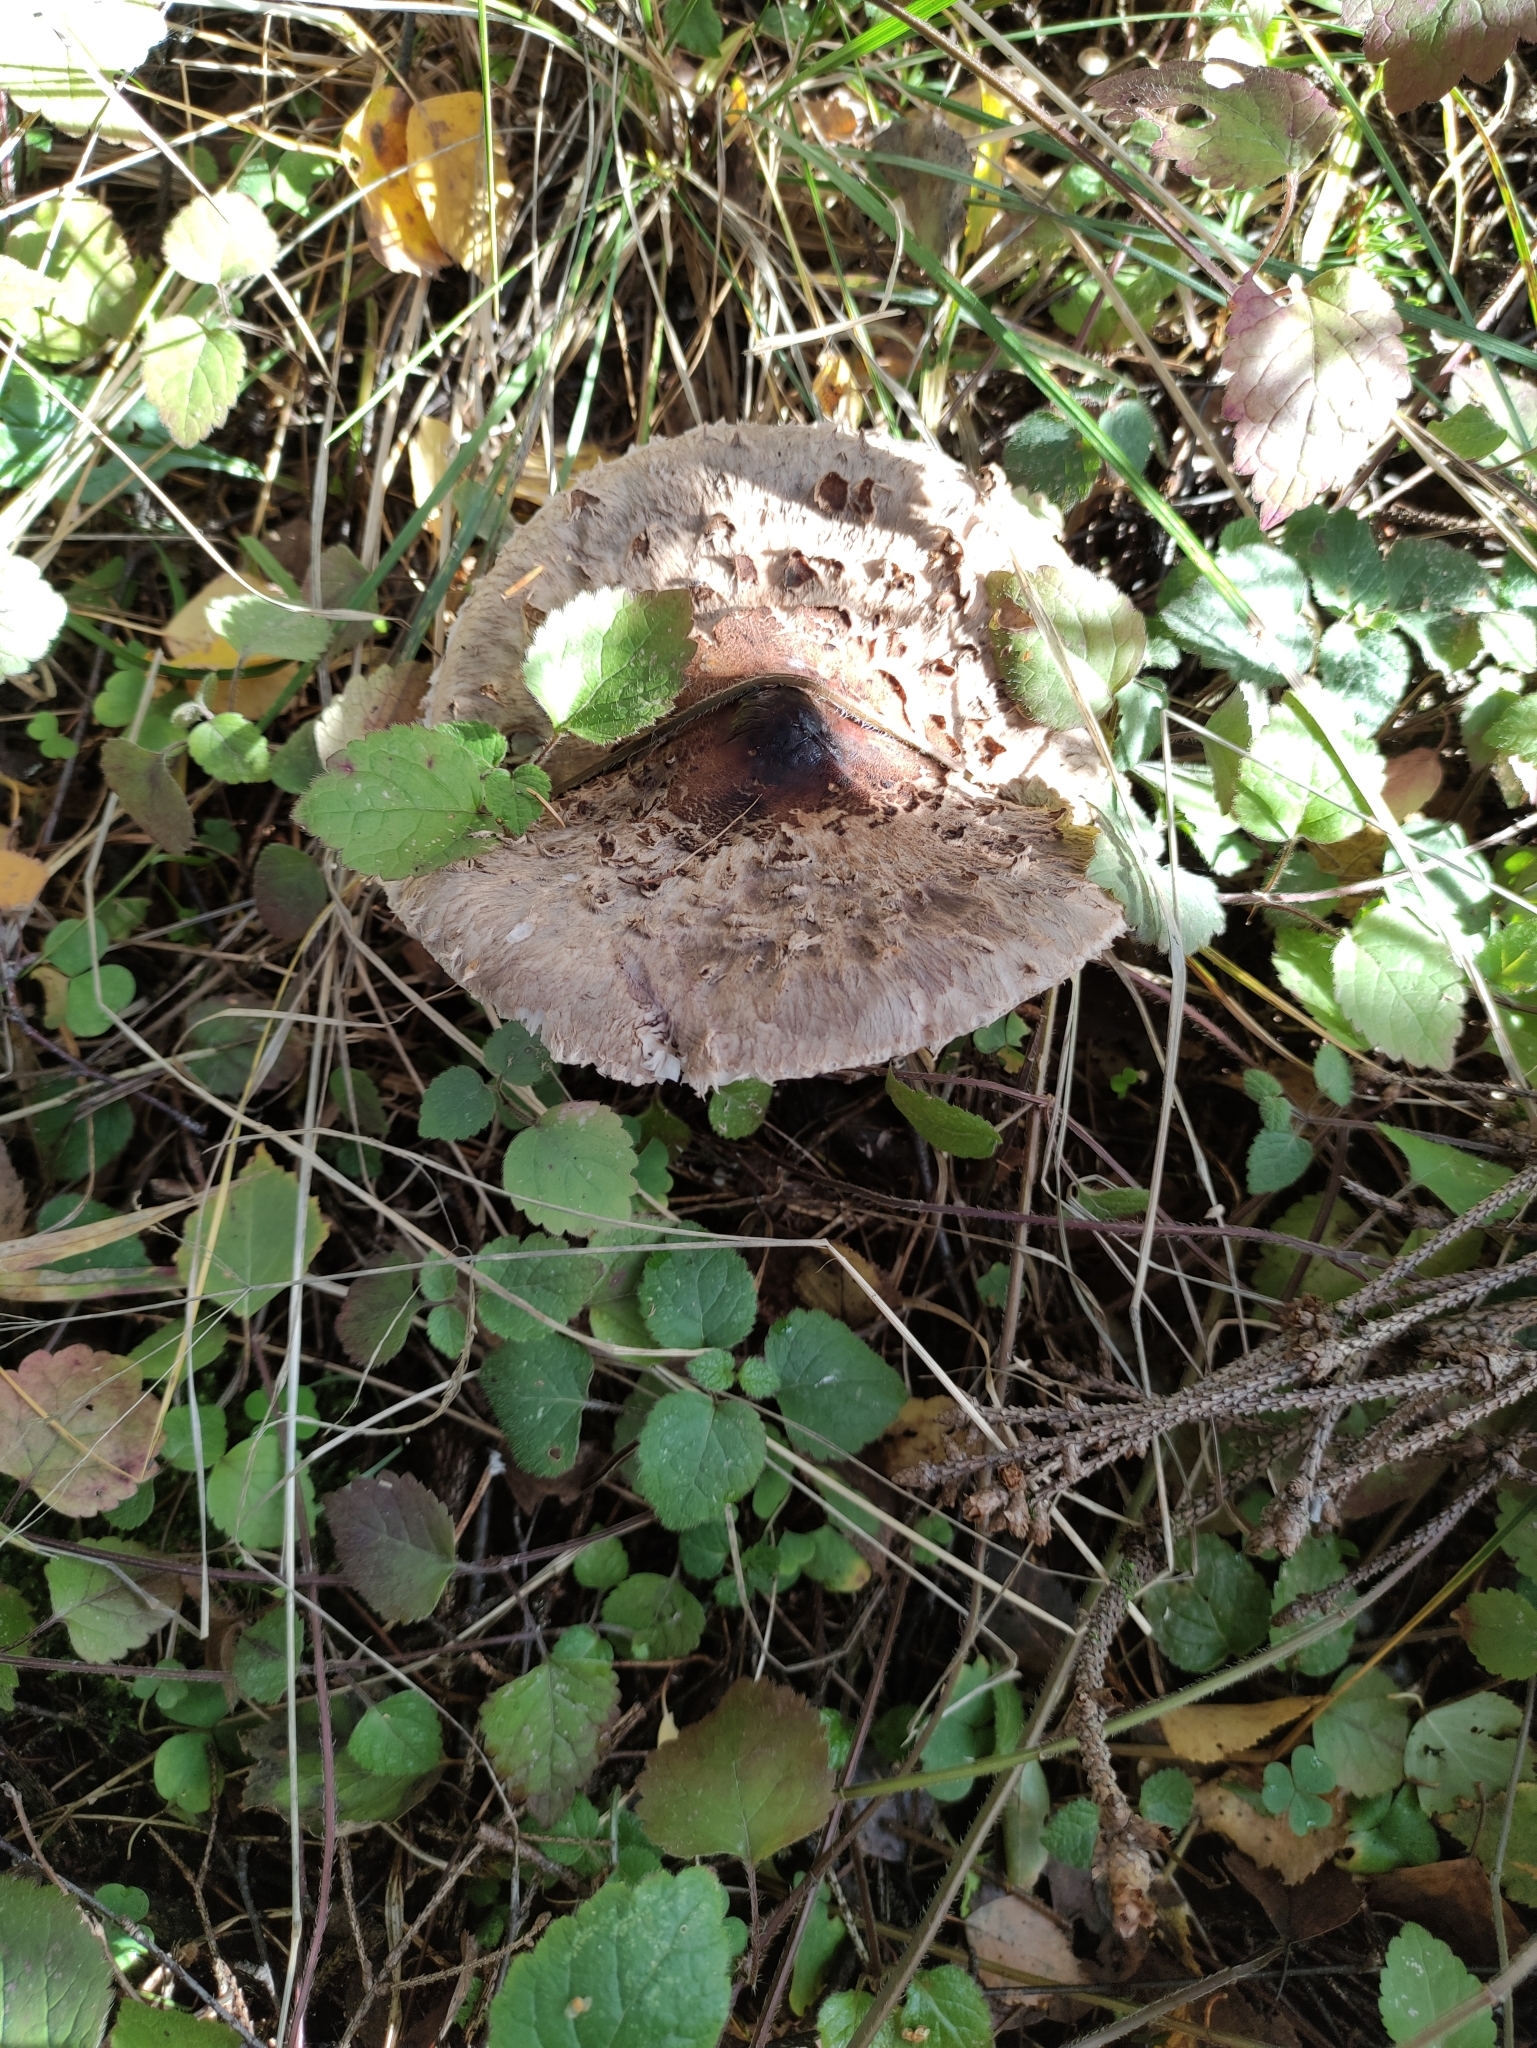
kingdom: Fungi
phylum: Basidiomycota
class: Agaricomycetes
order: Agaricales
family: Agaricaceae
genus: Macrolepiota
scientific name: Macrolepiota procera
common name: Parasol
